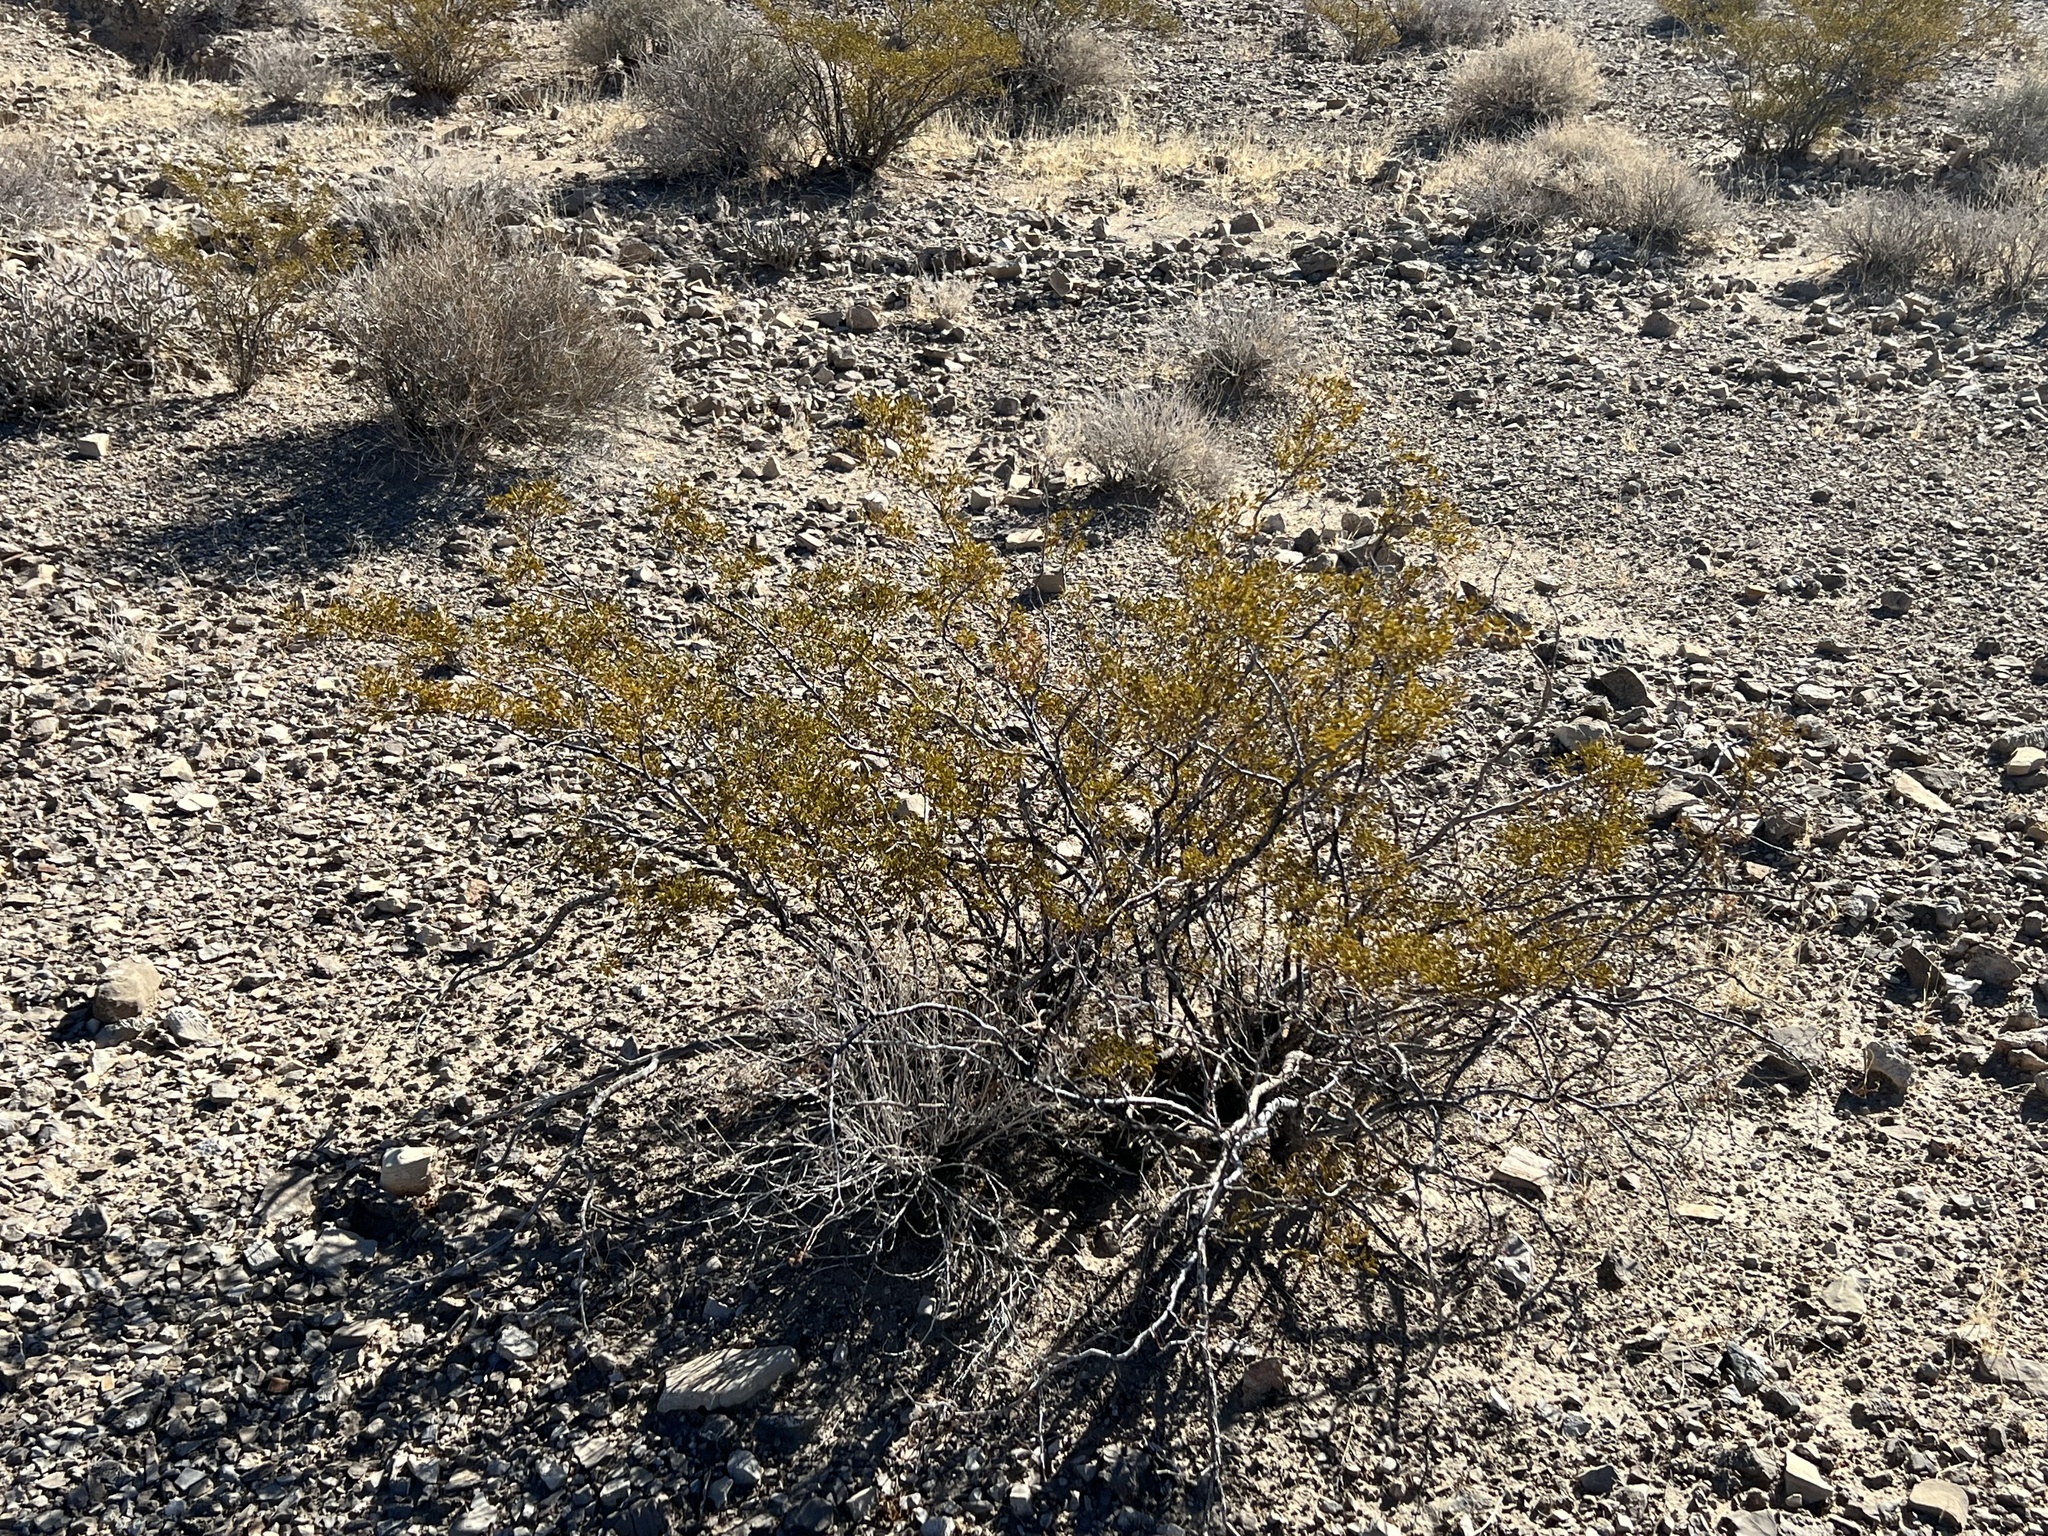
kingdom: Plantae
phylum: Tracheophyta
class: Magnoliopsida
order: Zygophyllales
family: Zygophyllaceae
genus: Larrea
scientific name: Larrea tridentata
